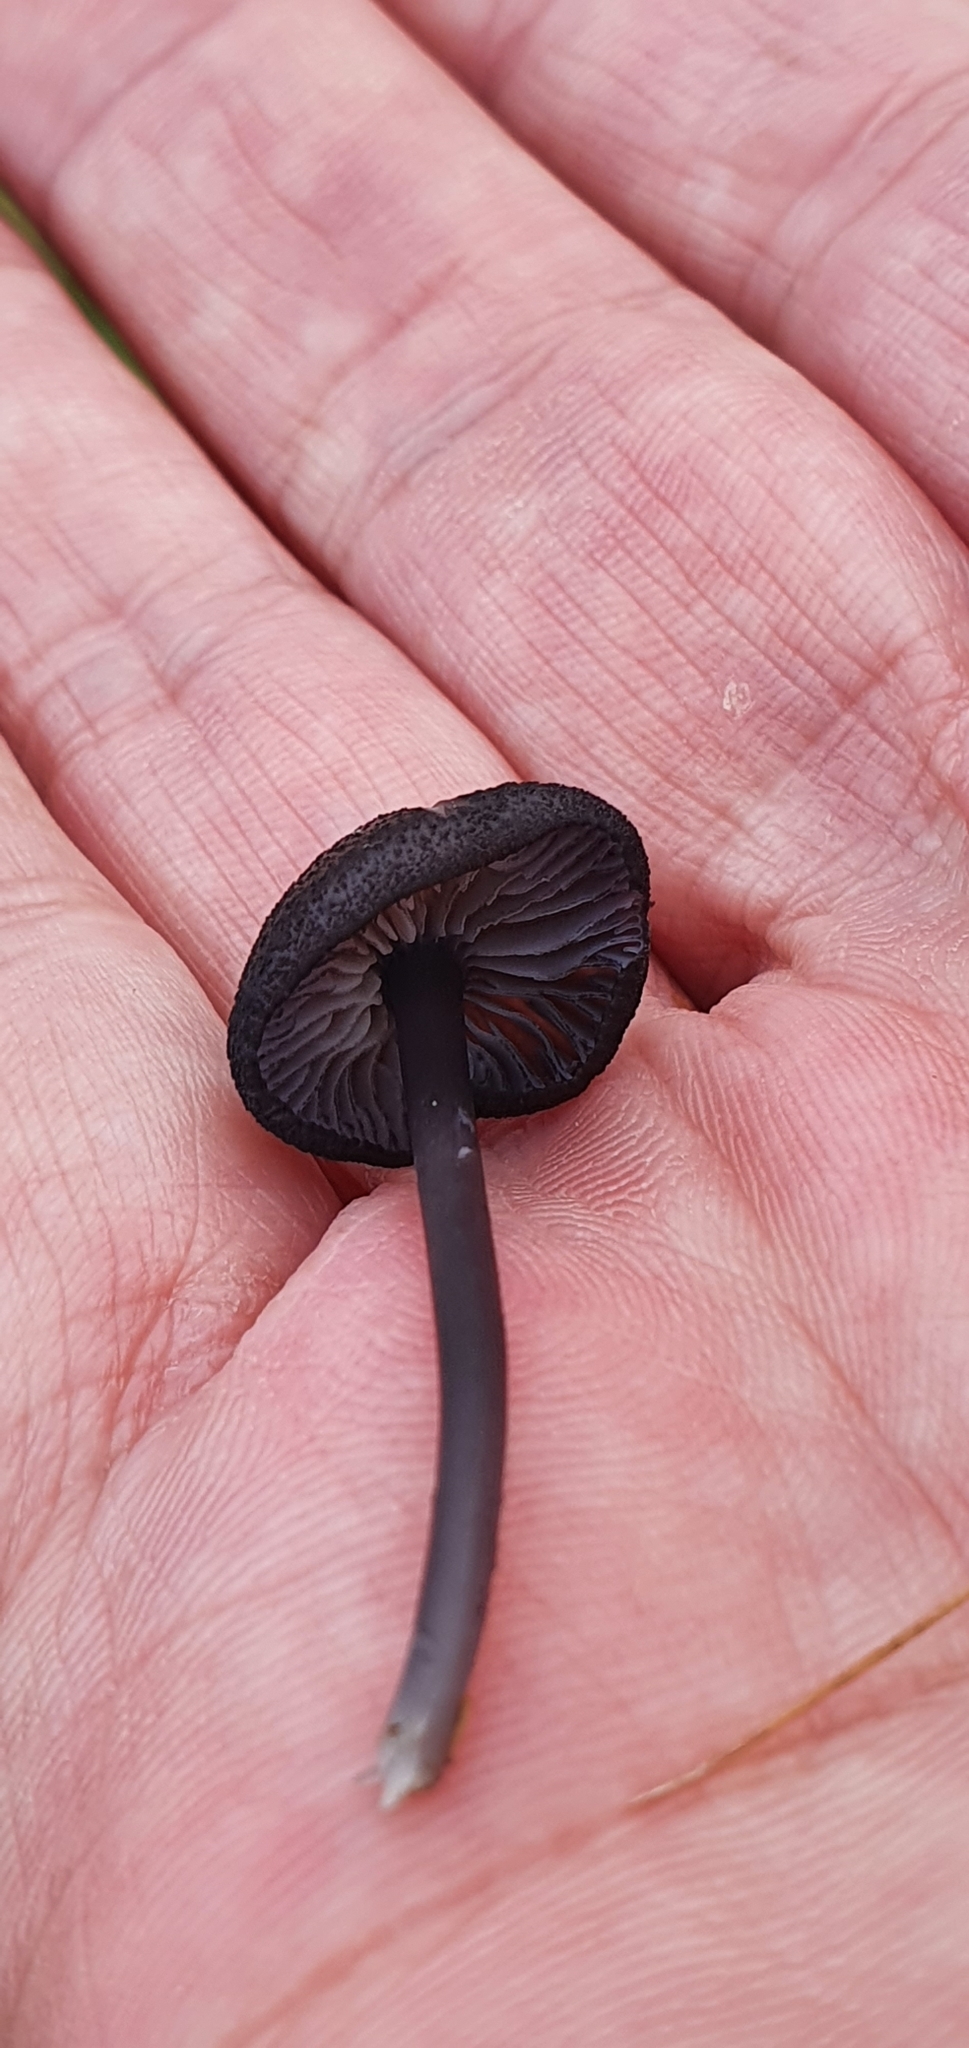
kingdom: Fungi
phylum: Basidiomycota
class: Agaricomycetes
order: Agaricales
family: Entolomataceae
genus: Entoloma
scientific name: Entoloma serrulatum
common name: Blue edge pinkgill
